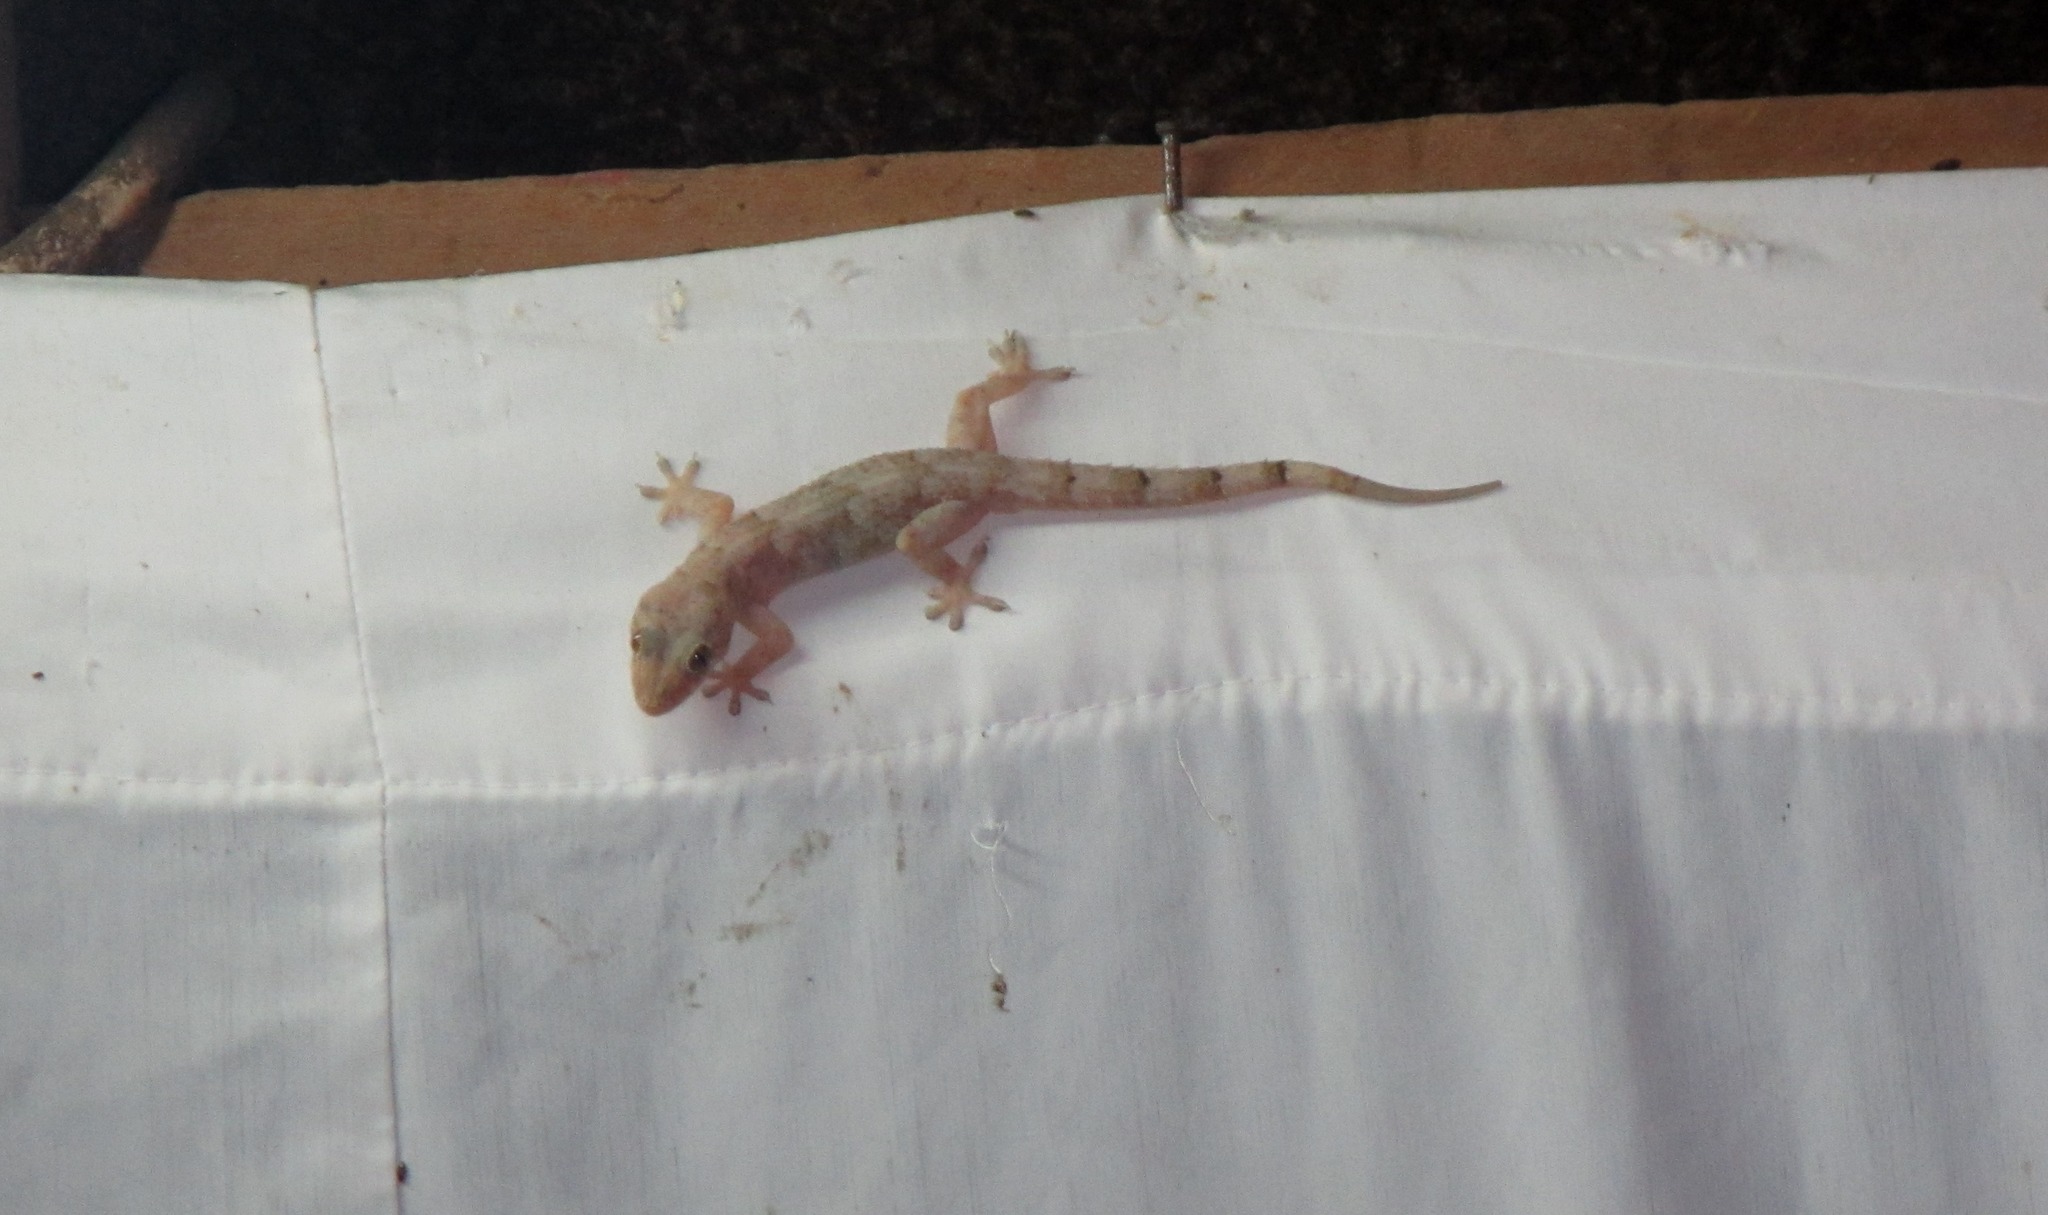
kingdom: Animalia
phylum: Chordata
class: Squamata
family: Gekkonidae
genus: Hemidactylus
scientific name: Hemidactylus mabouia
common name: House gecko
